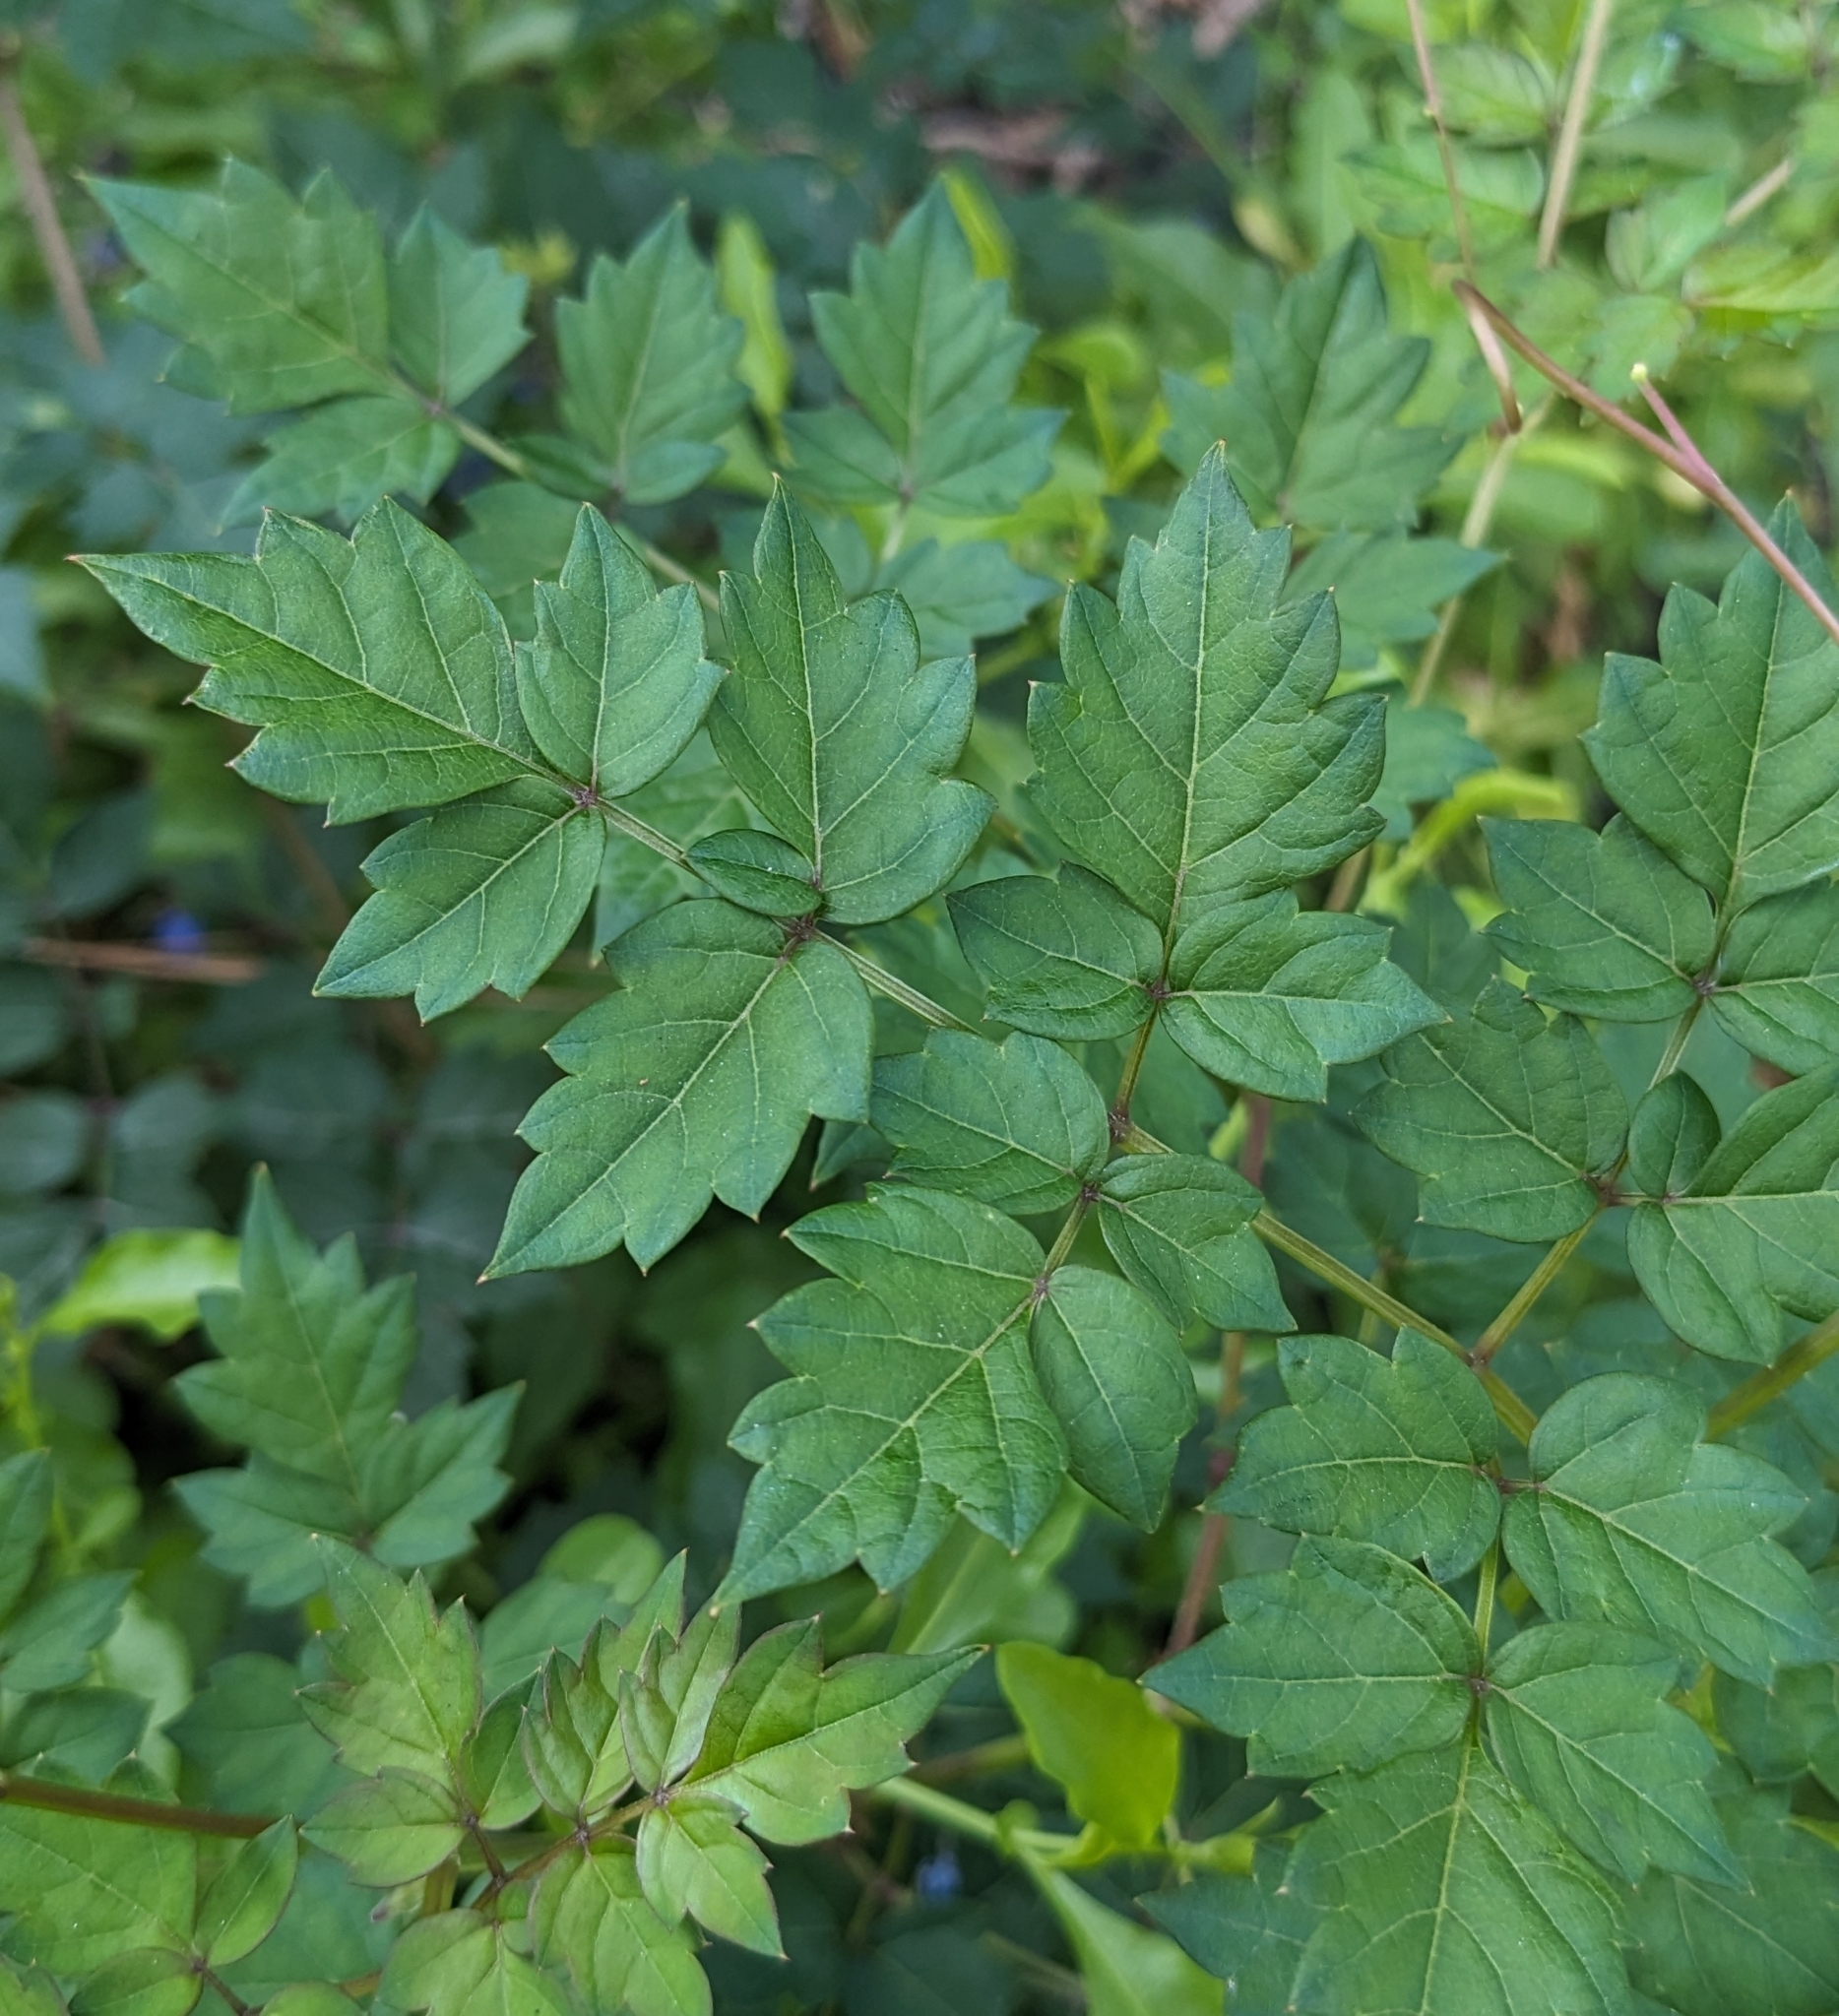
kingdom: Plantae
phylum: Tracheophyta
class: Magnoliopsida
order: Vitales
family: Vitaceae
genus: Nekemias
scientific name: Nekemias arborea
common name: Peppervine
